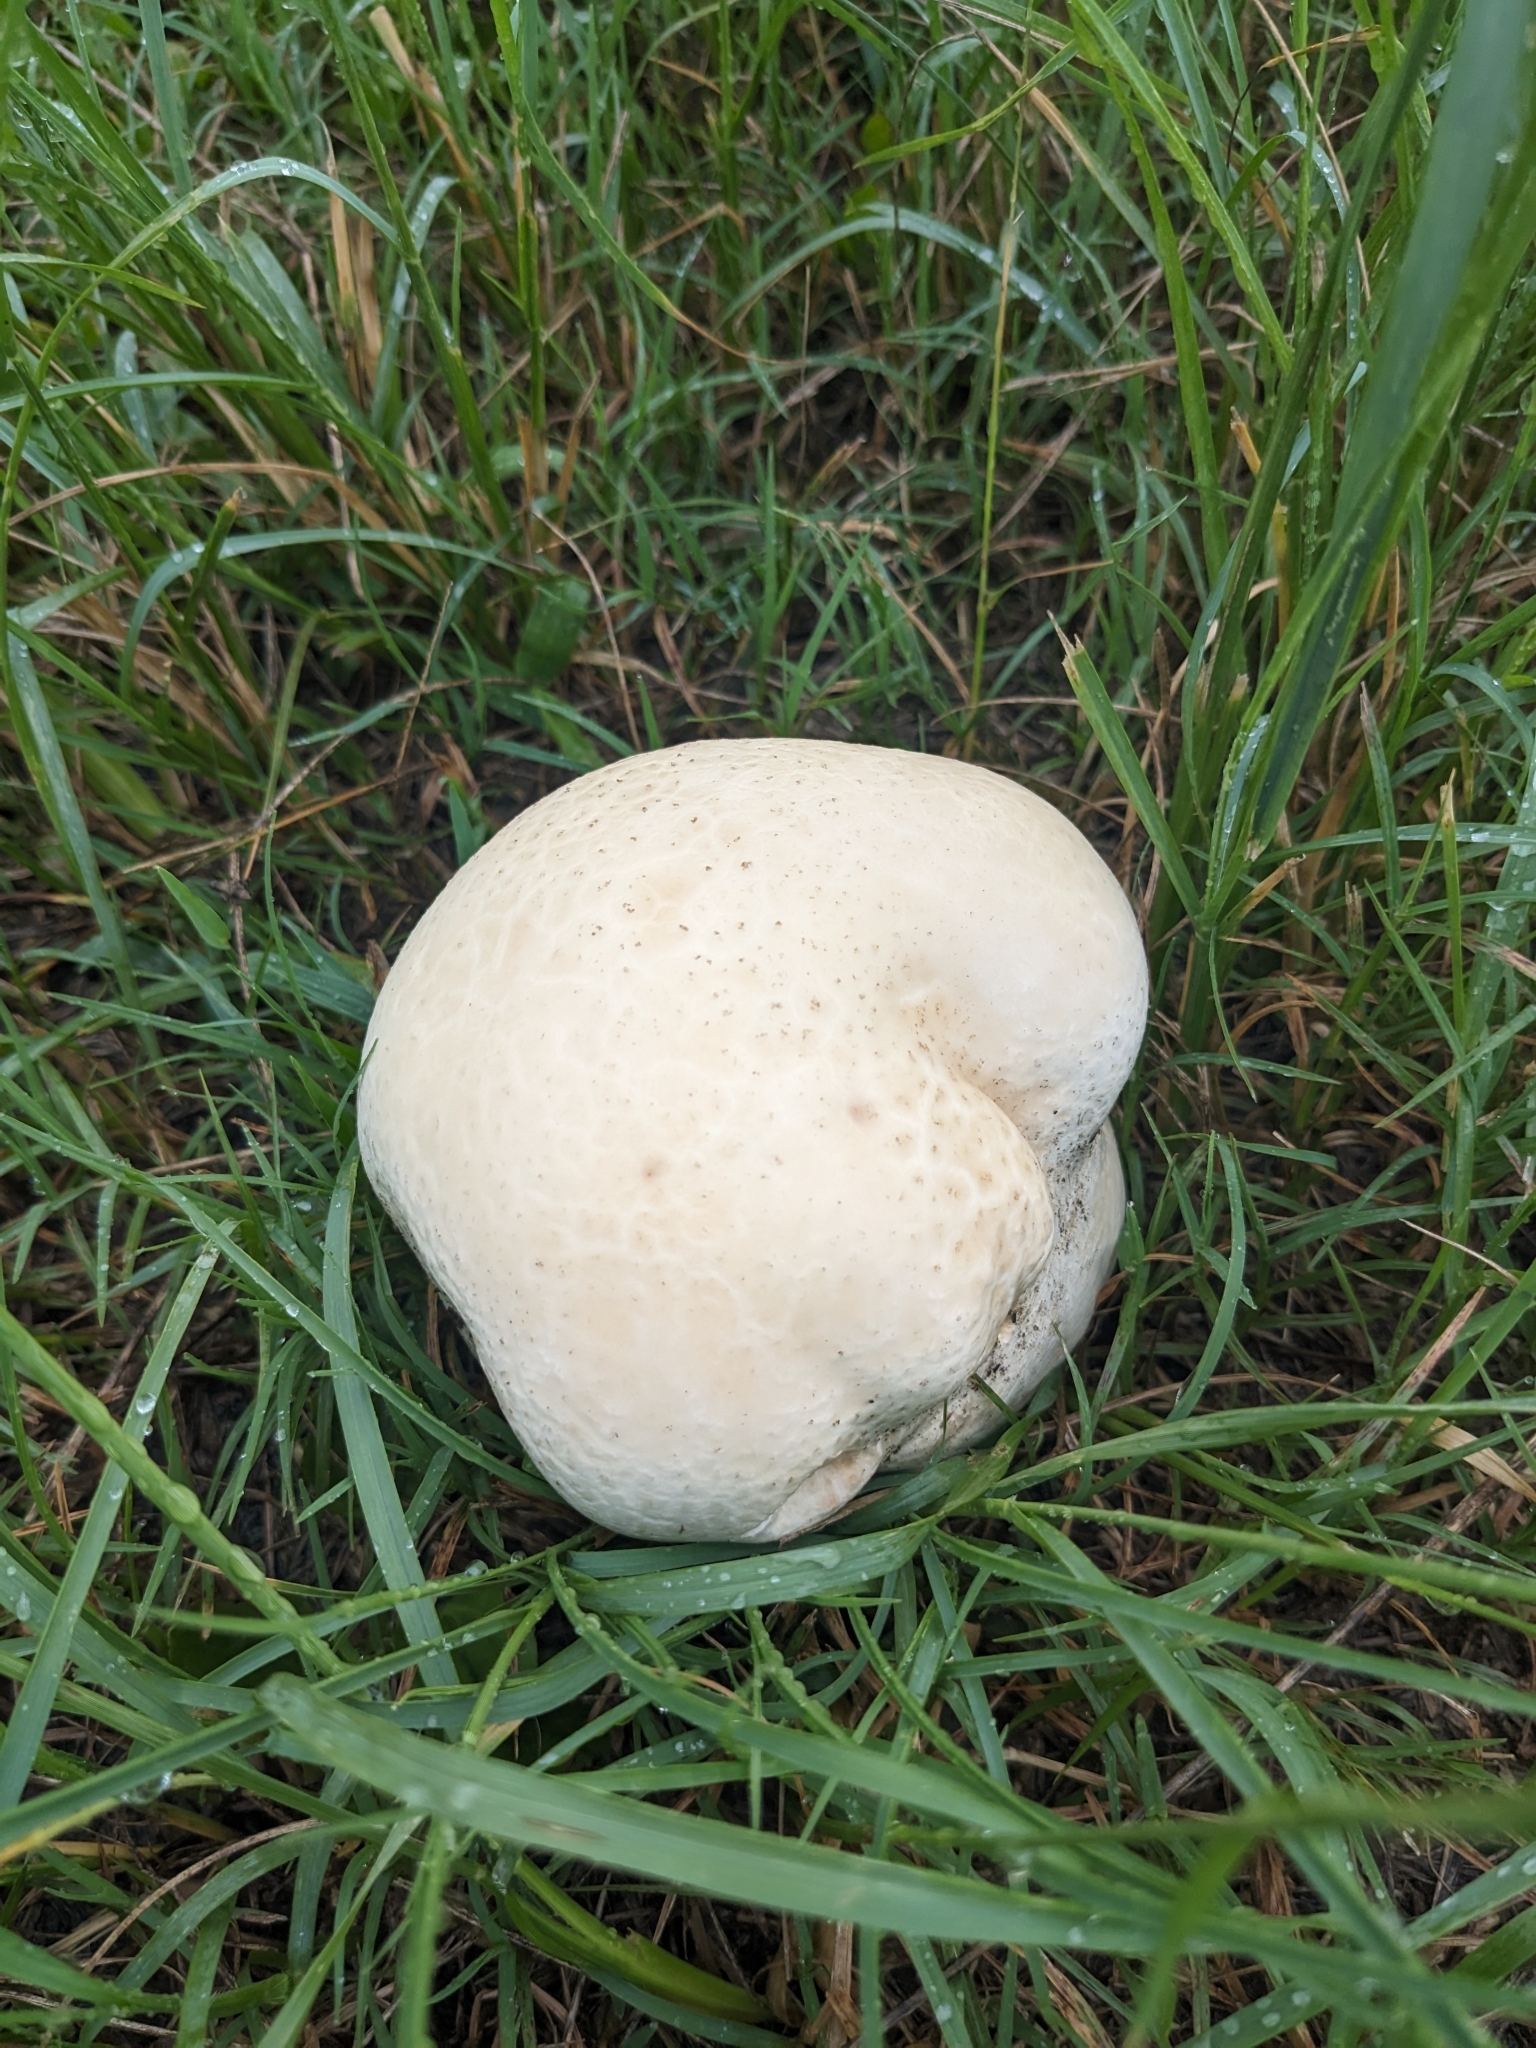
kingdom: Fungi
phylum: Basidiomycota
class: Agaricomycetes
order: Agaricales
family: Lycoperdaceae
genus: Calvatia
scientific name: Calvatia lilacina
